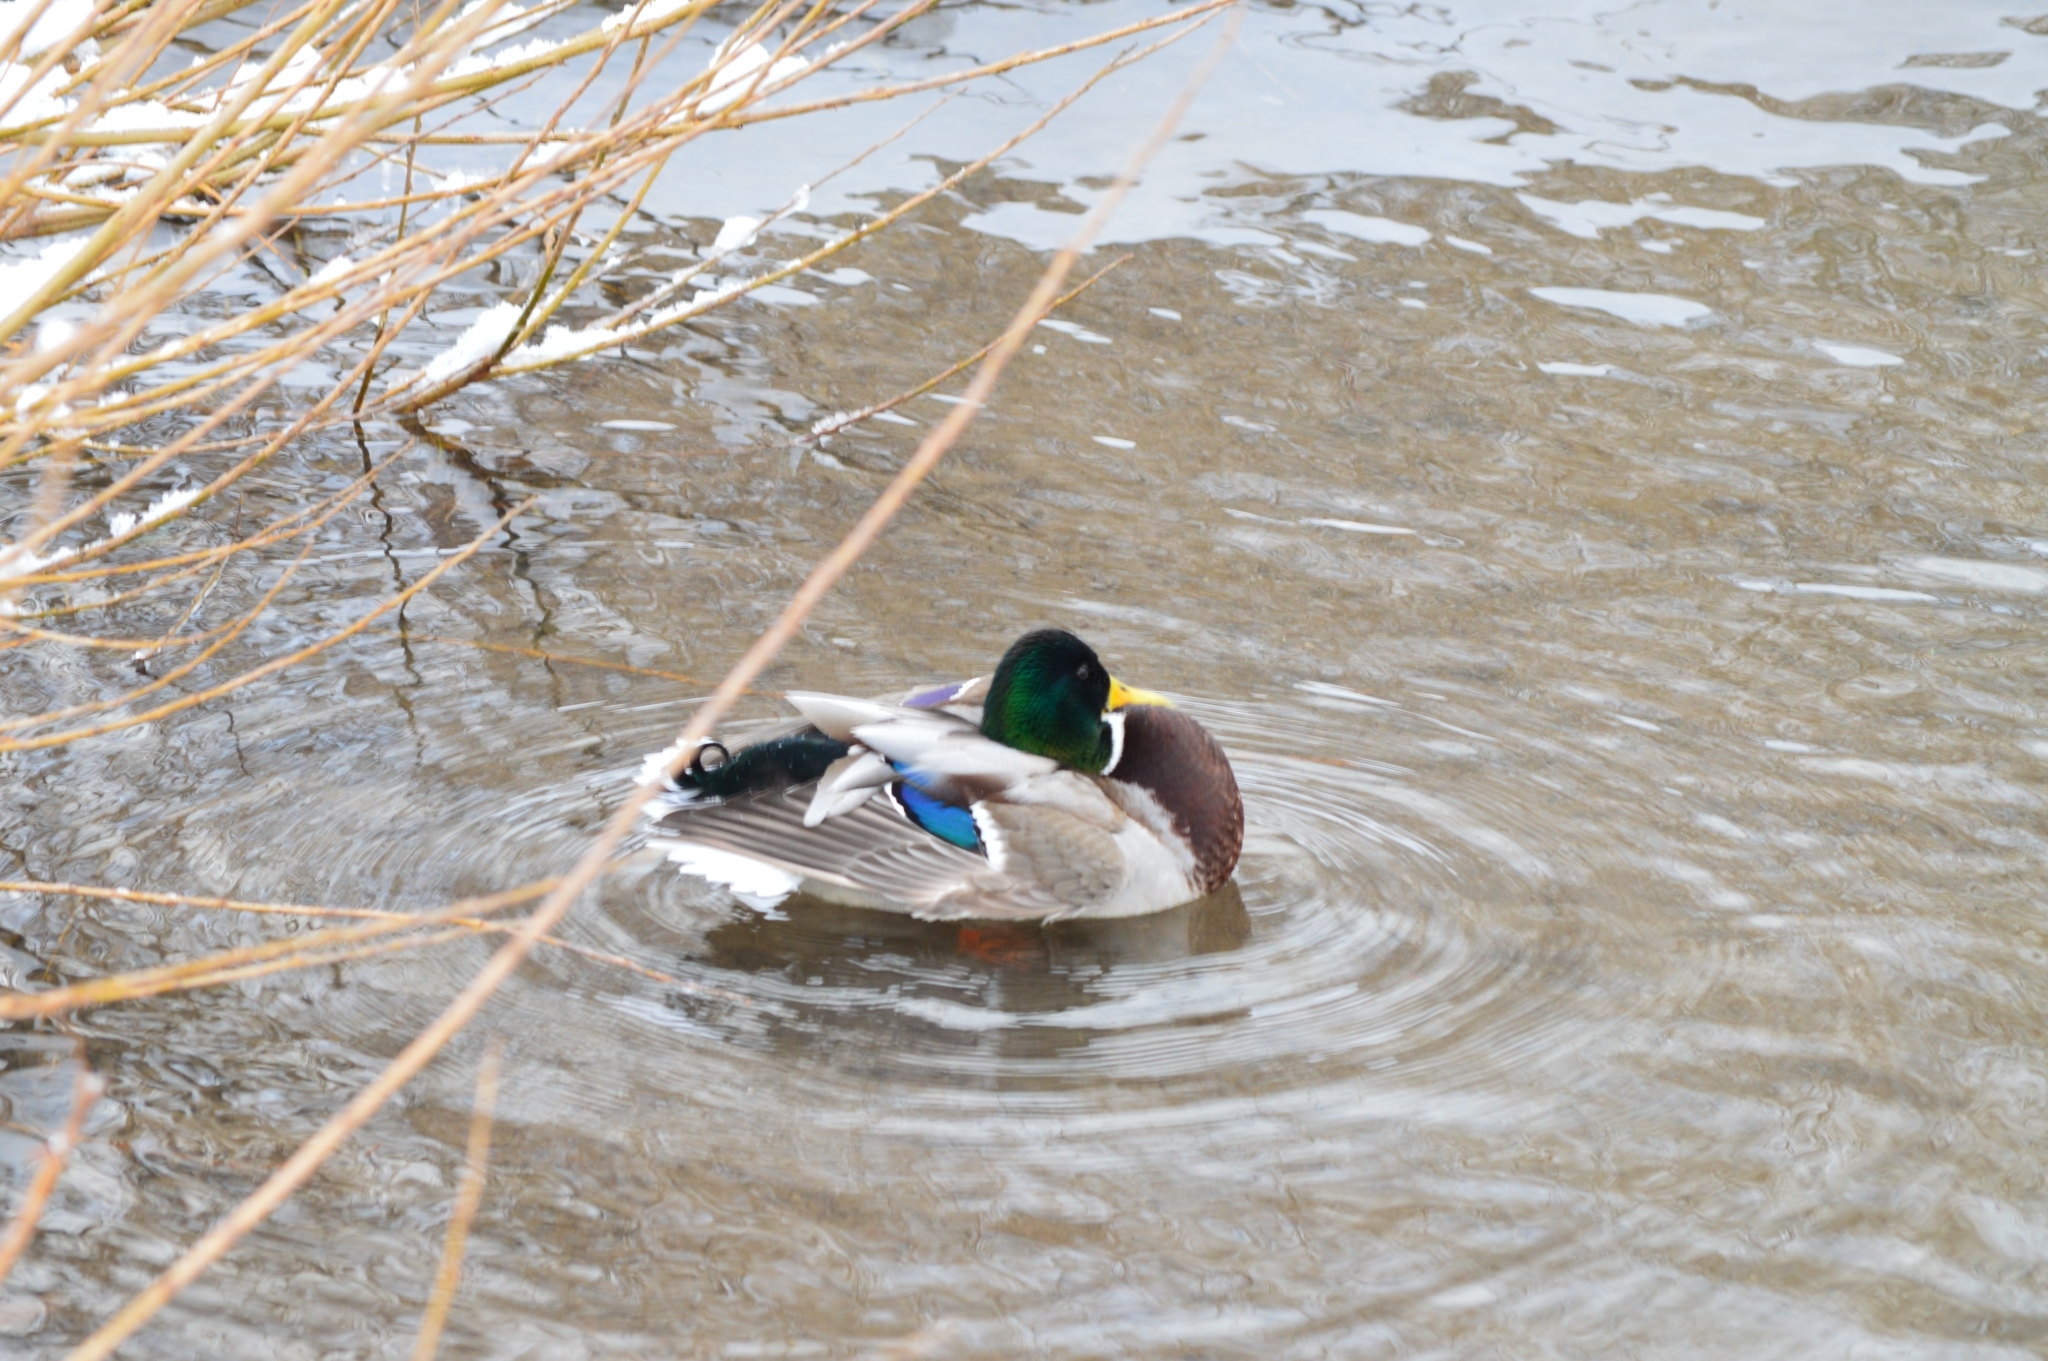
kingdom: Animalia
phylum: Chordata
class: Aves
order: Anseriformes
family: Anatidae
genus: Anas
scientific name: Anas platyrhynchos
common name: Mallard
